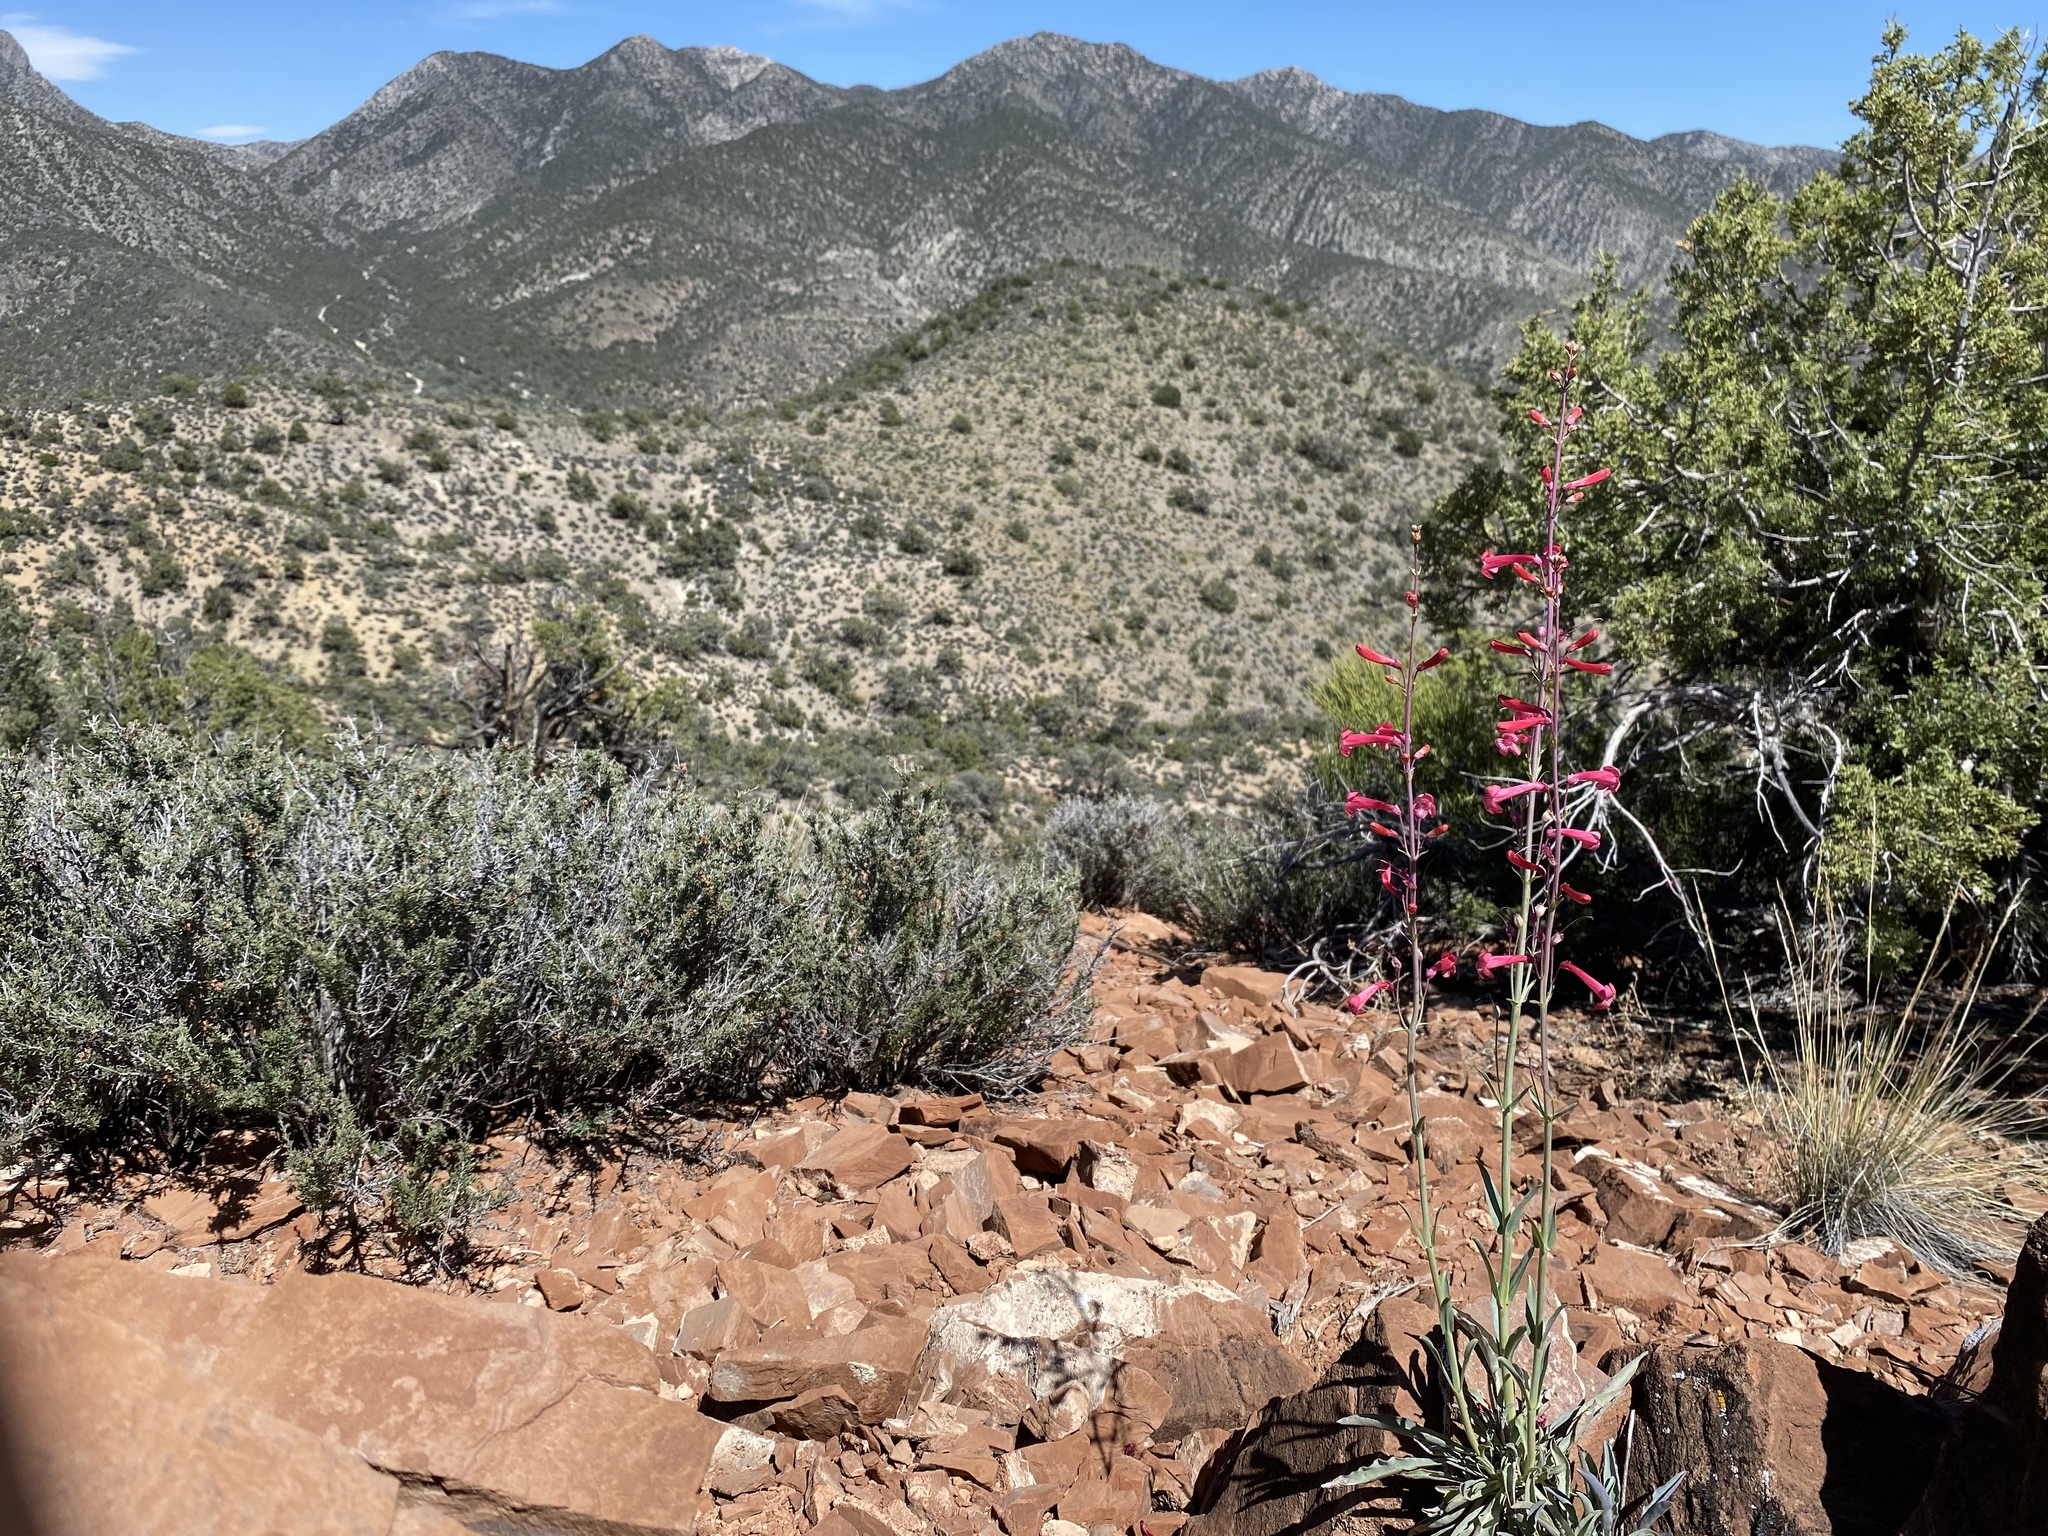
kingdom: Plantae
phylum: Tracheophyta
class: Magnoliopsida
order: Lamiales
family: Plantaginaceae
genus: Penstemon
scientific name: Penstemon utahensis
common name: Utah penstemon
